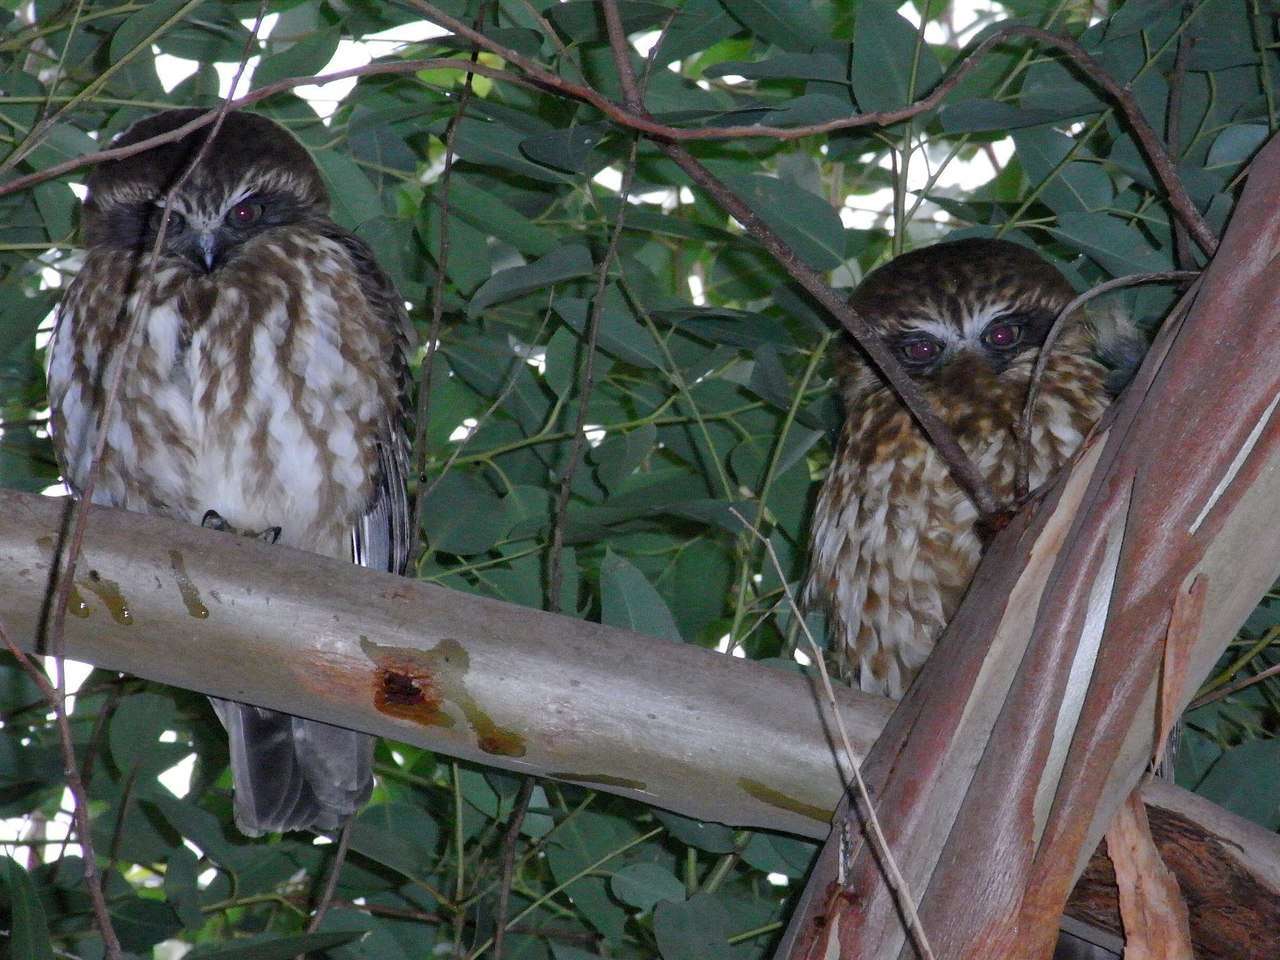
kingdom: Animalia
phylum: Chordata
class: Aves
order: Strigiformes
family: Strigidae
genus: Ninox
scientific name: Ninox boobook
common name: Southern boobook
